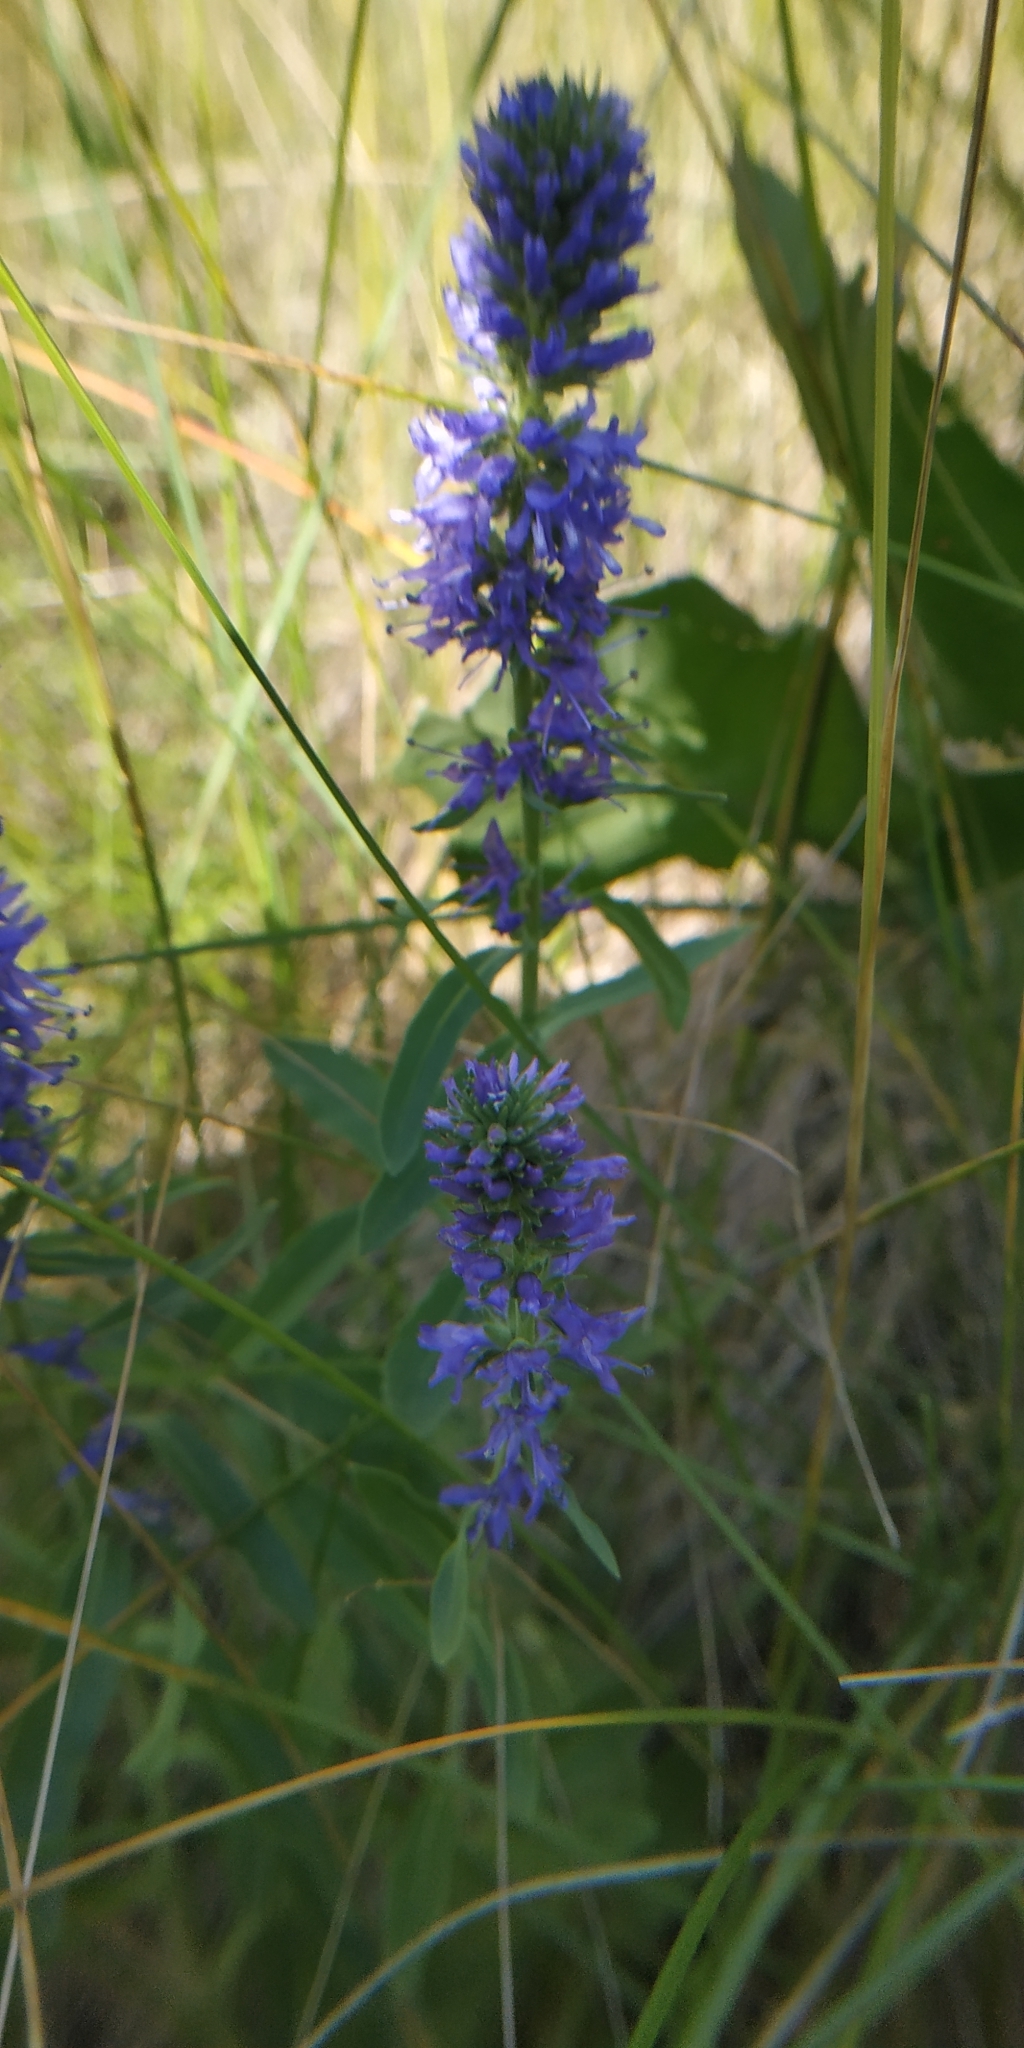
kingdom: Plantae
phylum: Tracheophyta
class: Magnoliopsida
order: Lamiales
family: Plantaginaceae
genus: Veronica
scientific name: Veronica spicata
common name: Spiked speedwell
